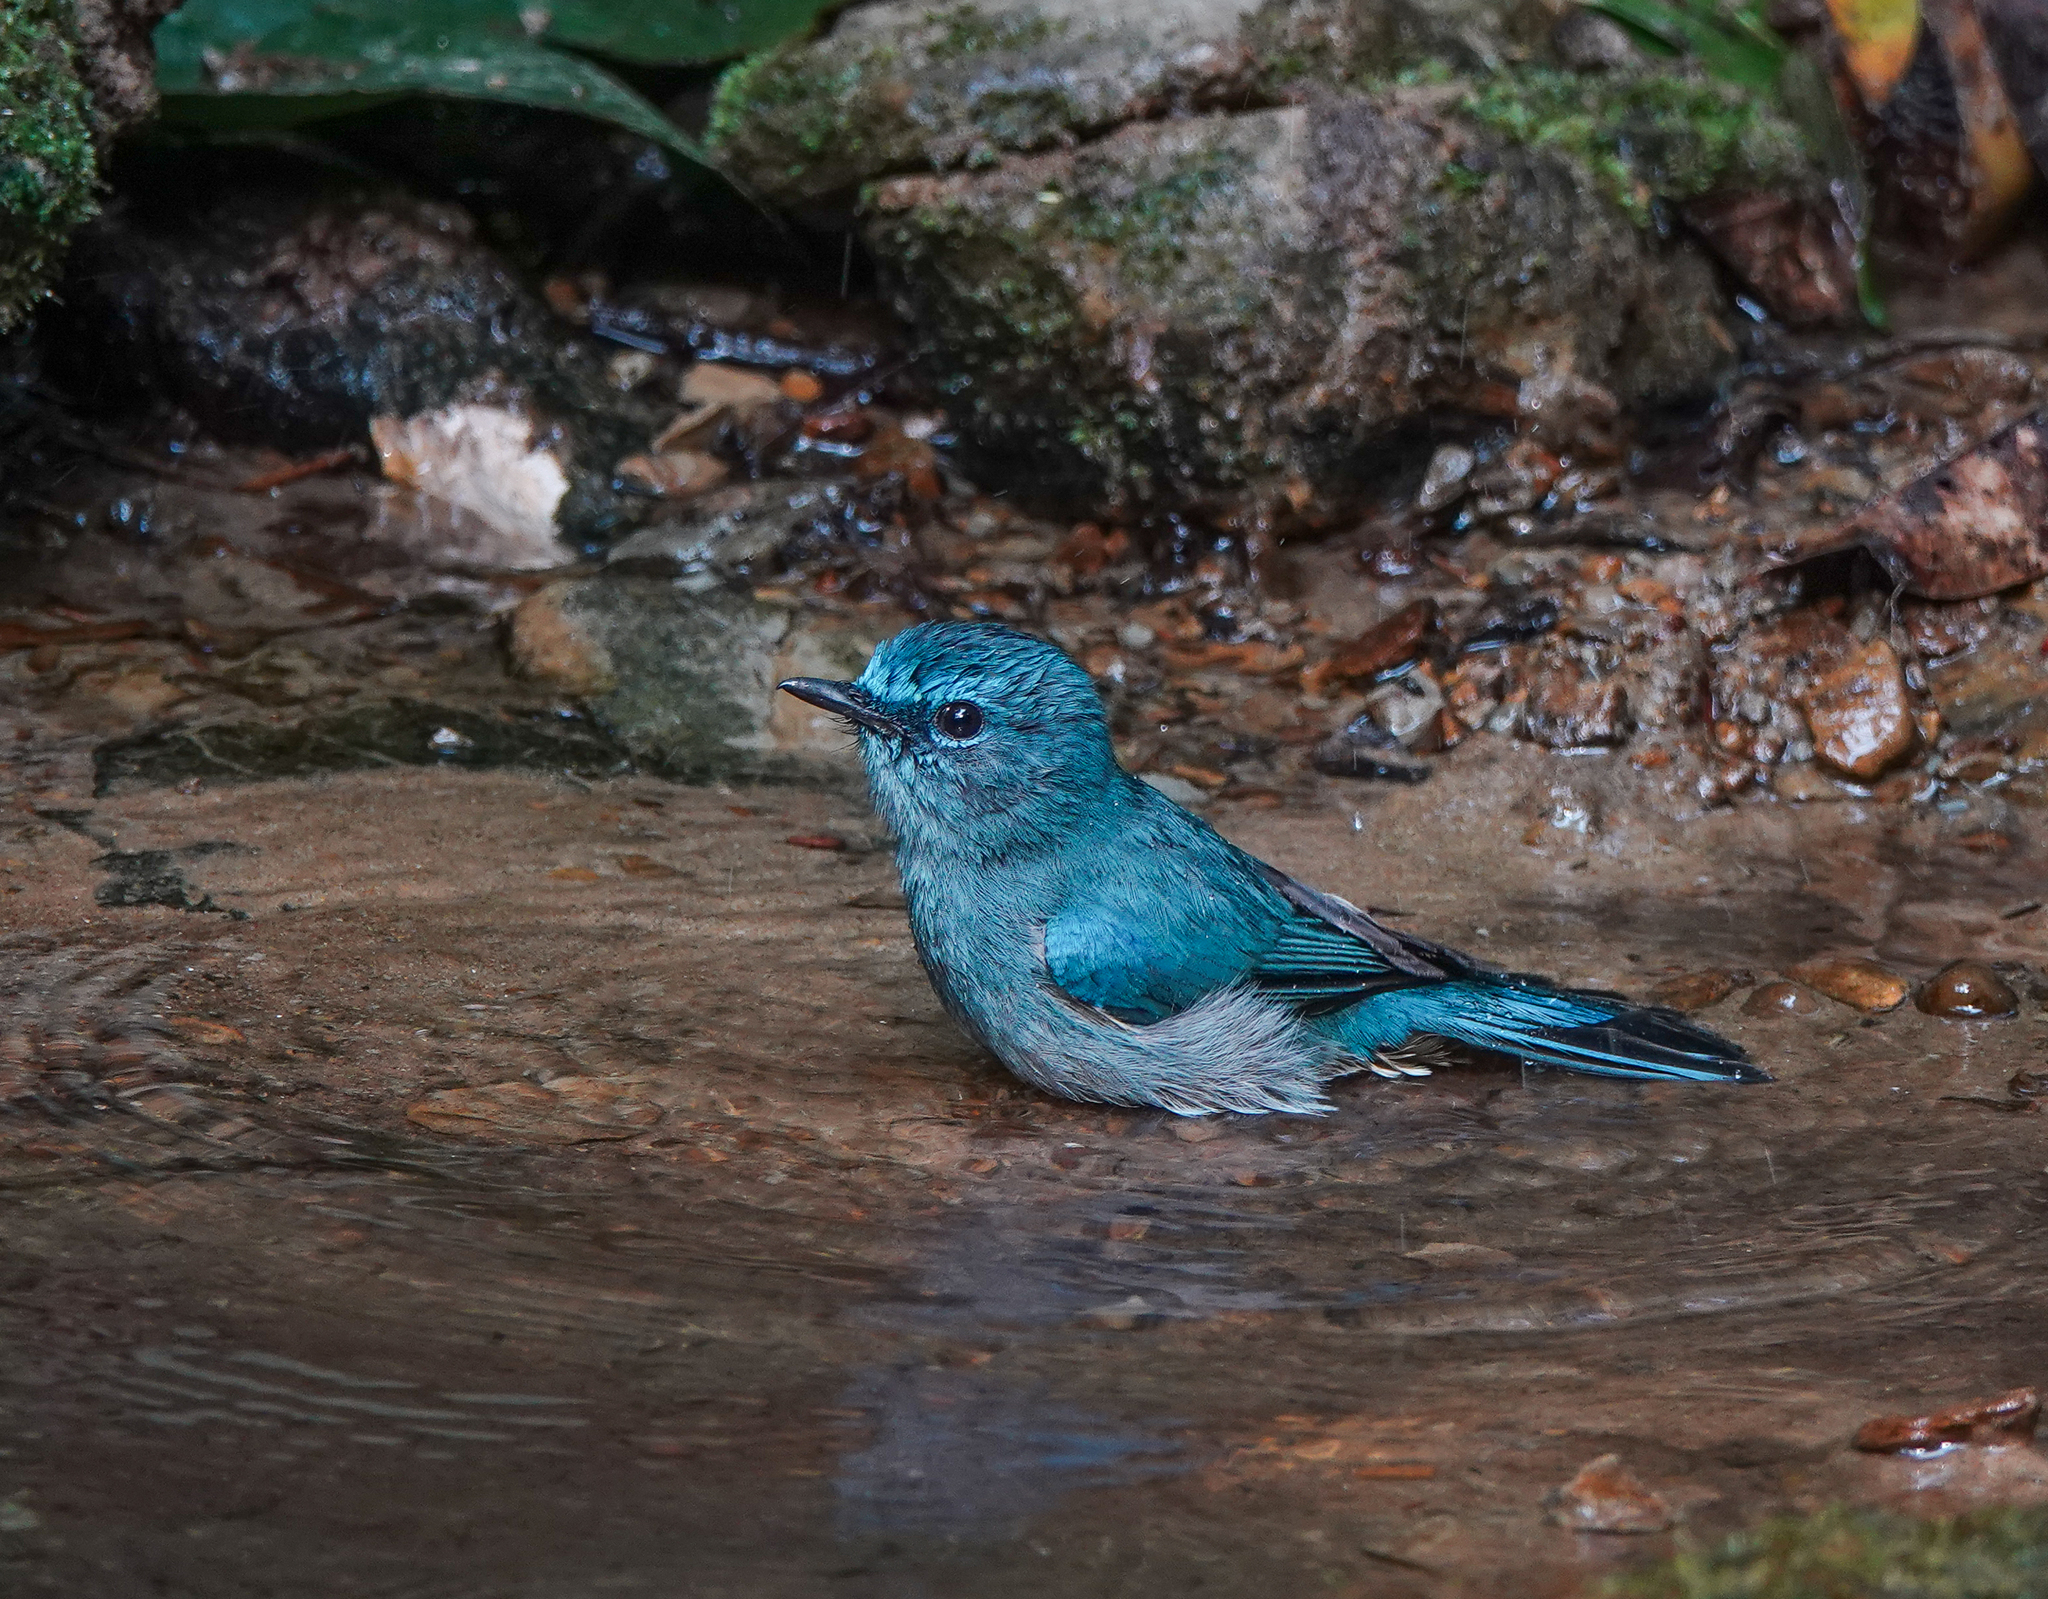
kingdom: Animalia
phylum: Chordata
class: Aves
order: Passeriformes
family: Muscicapidae
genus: Cyornis
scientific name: Cyornis unicolor
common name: Pale blue flycatcher
